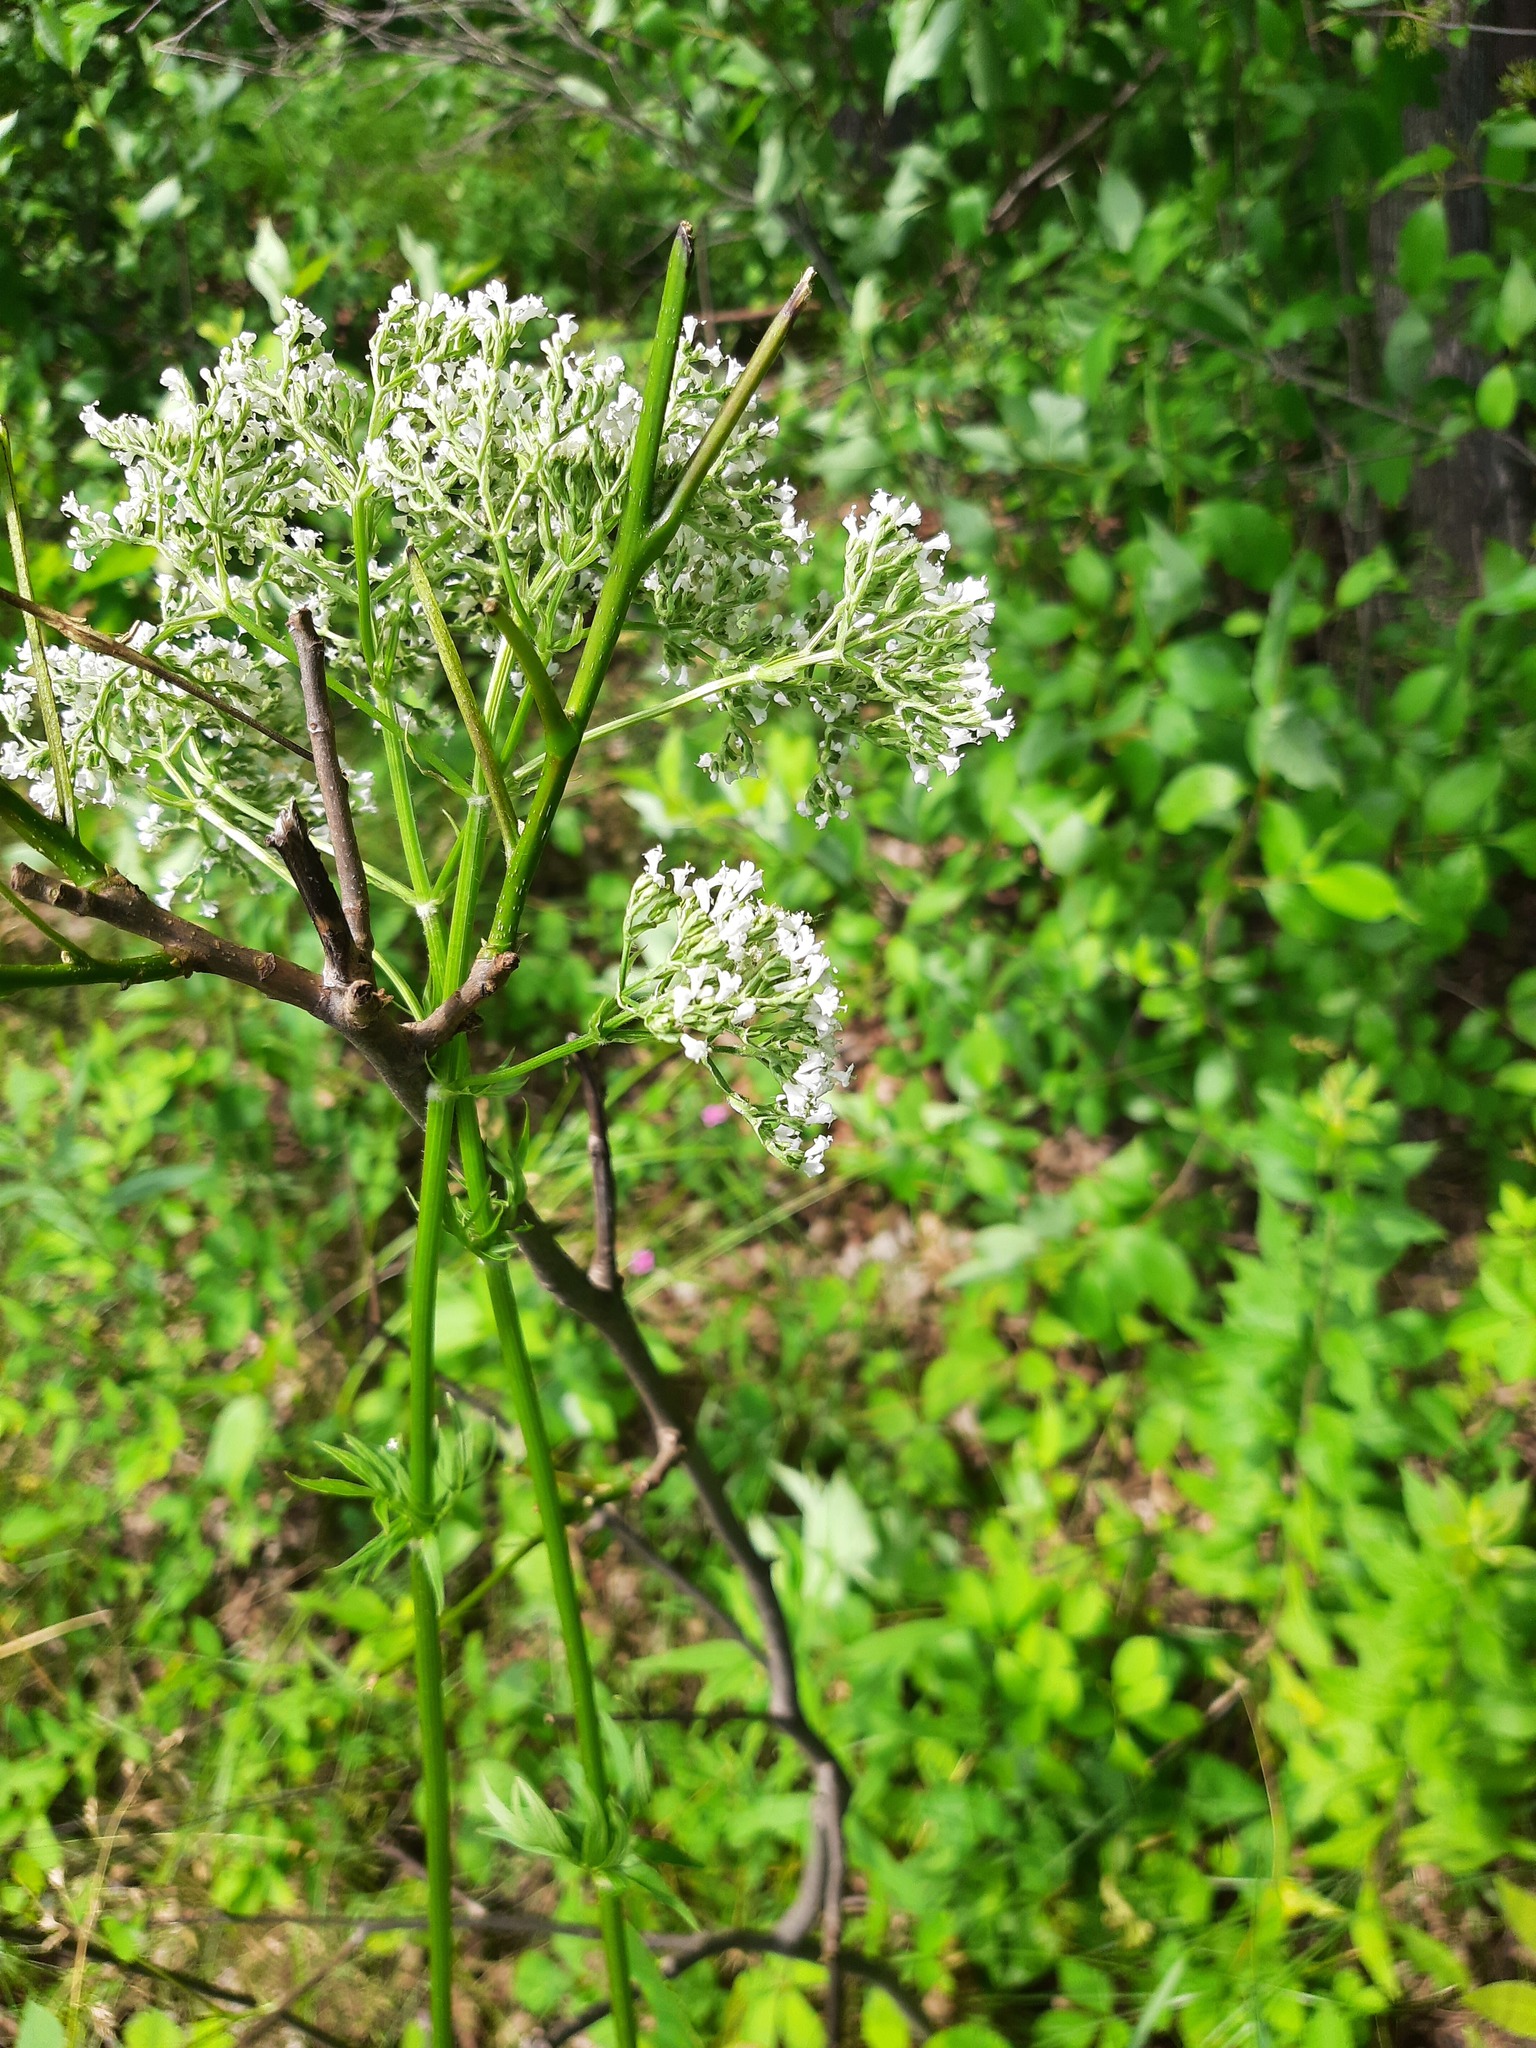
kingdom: Plantae
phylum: Tracheophyta
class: Magnoliopsida
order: Dipsacales
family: Caprifoliaceae
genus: Valeriana
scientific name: Valeriana officinalis
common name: Common valerian
